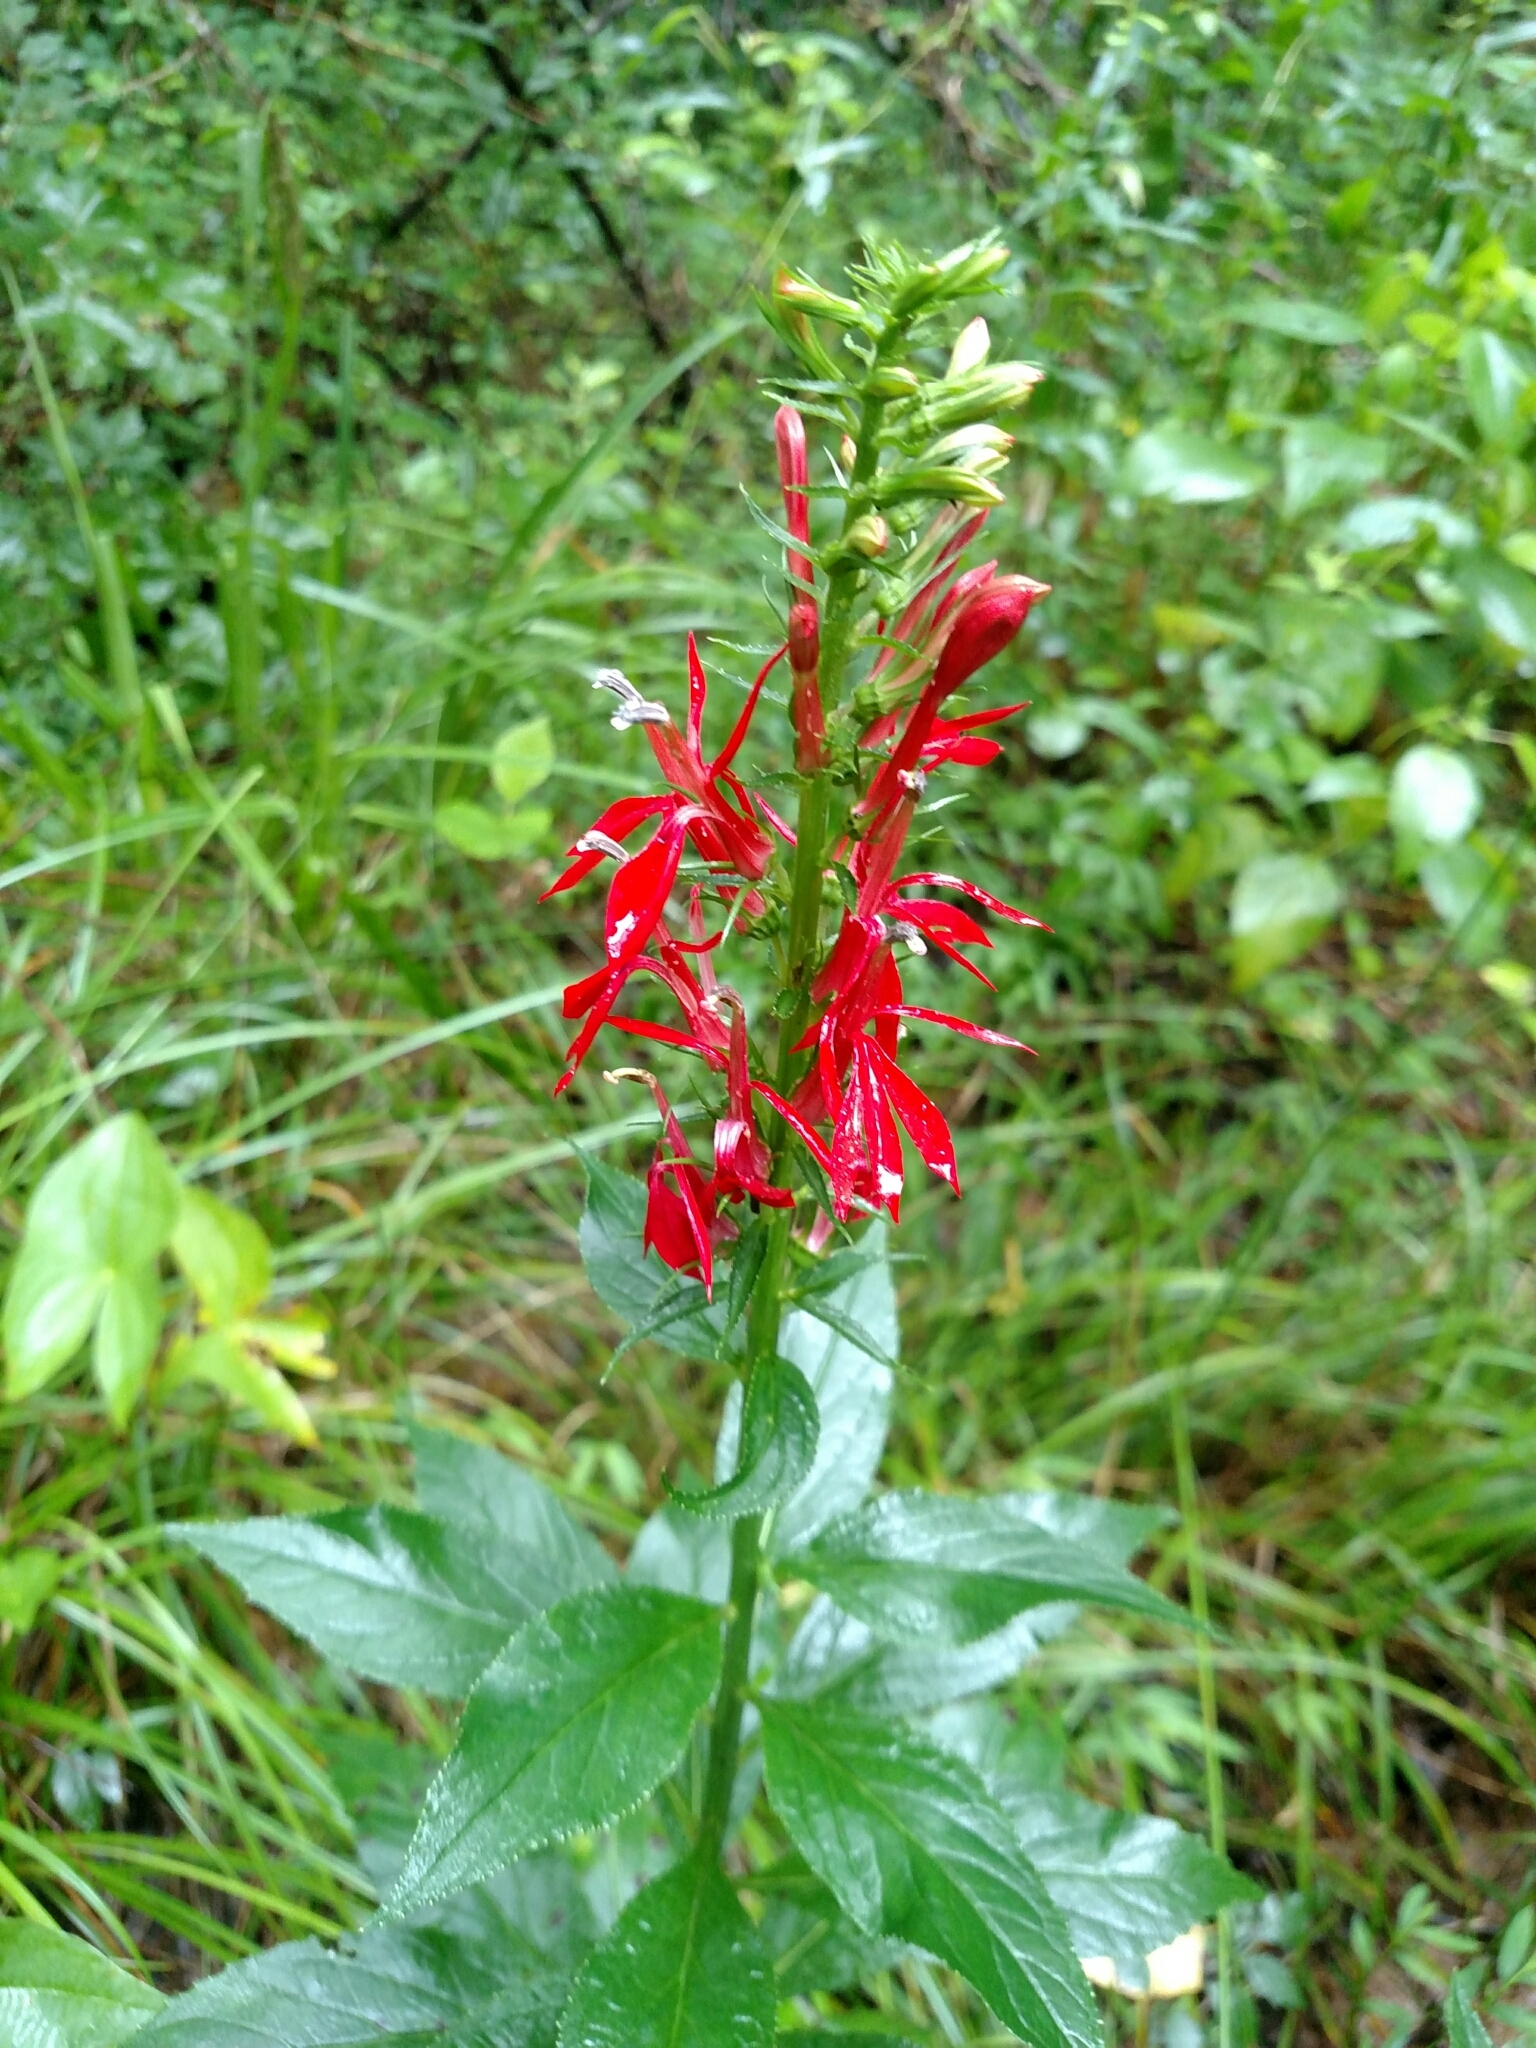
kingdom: Plantae
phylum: Tracheophyta
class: Magnoliopsida
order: Asterales
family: Campanulaceae
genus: Lobelia
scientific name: Lobelia cardinalis
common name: Cardinal flower
